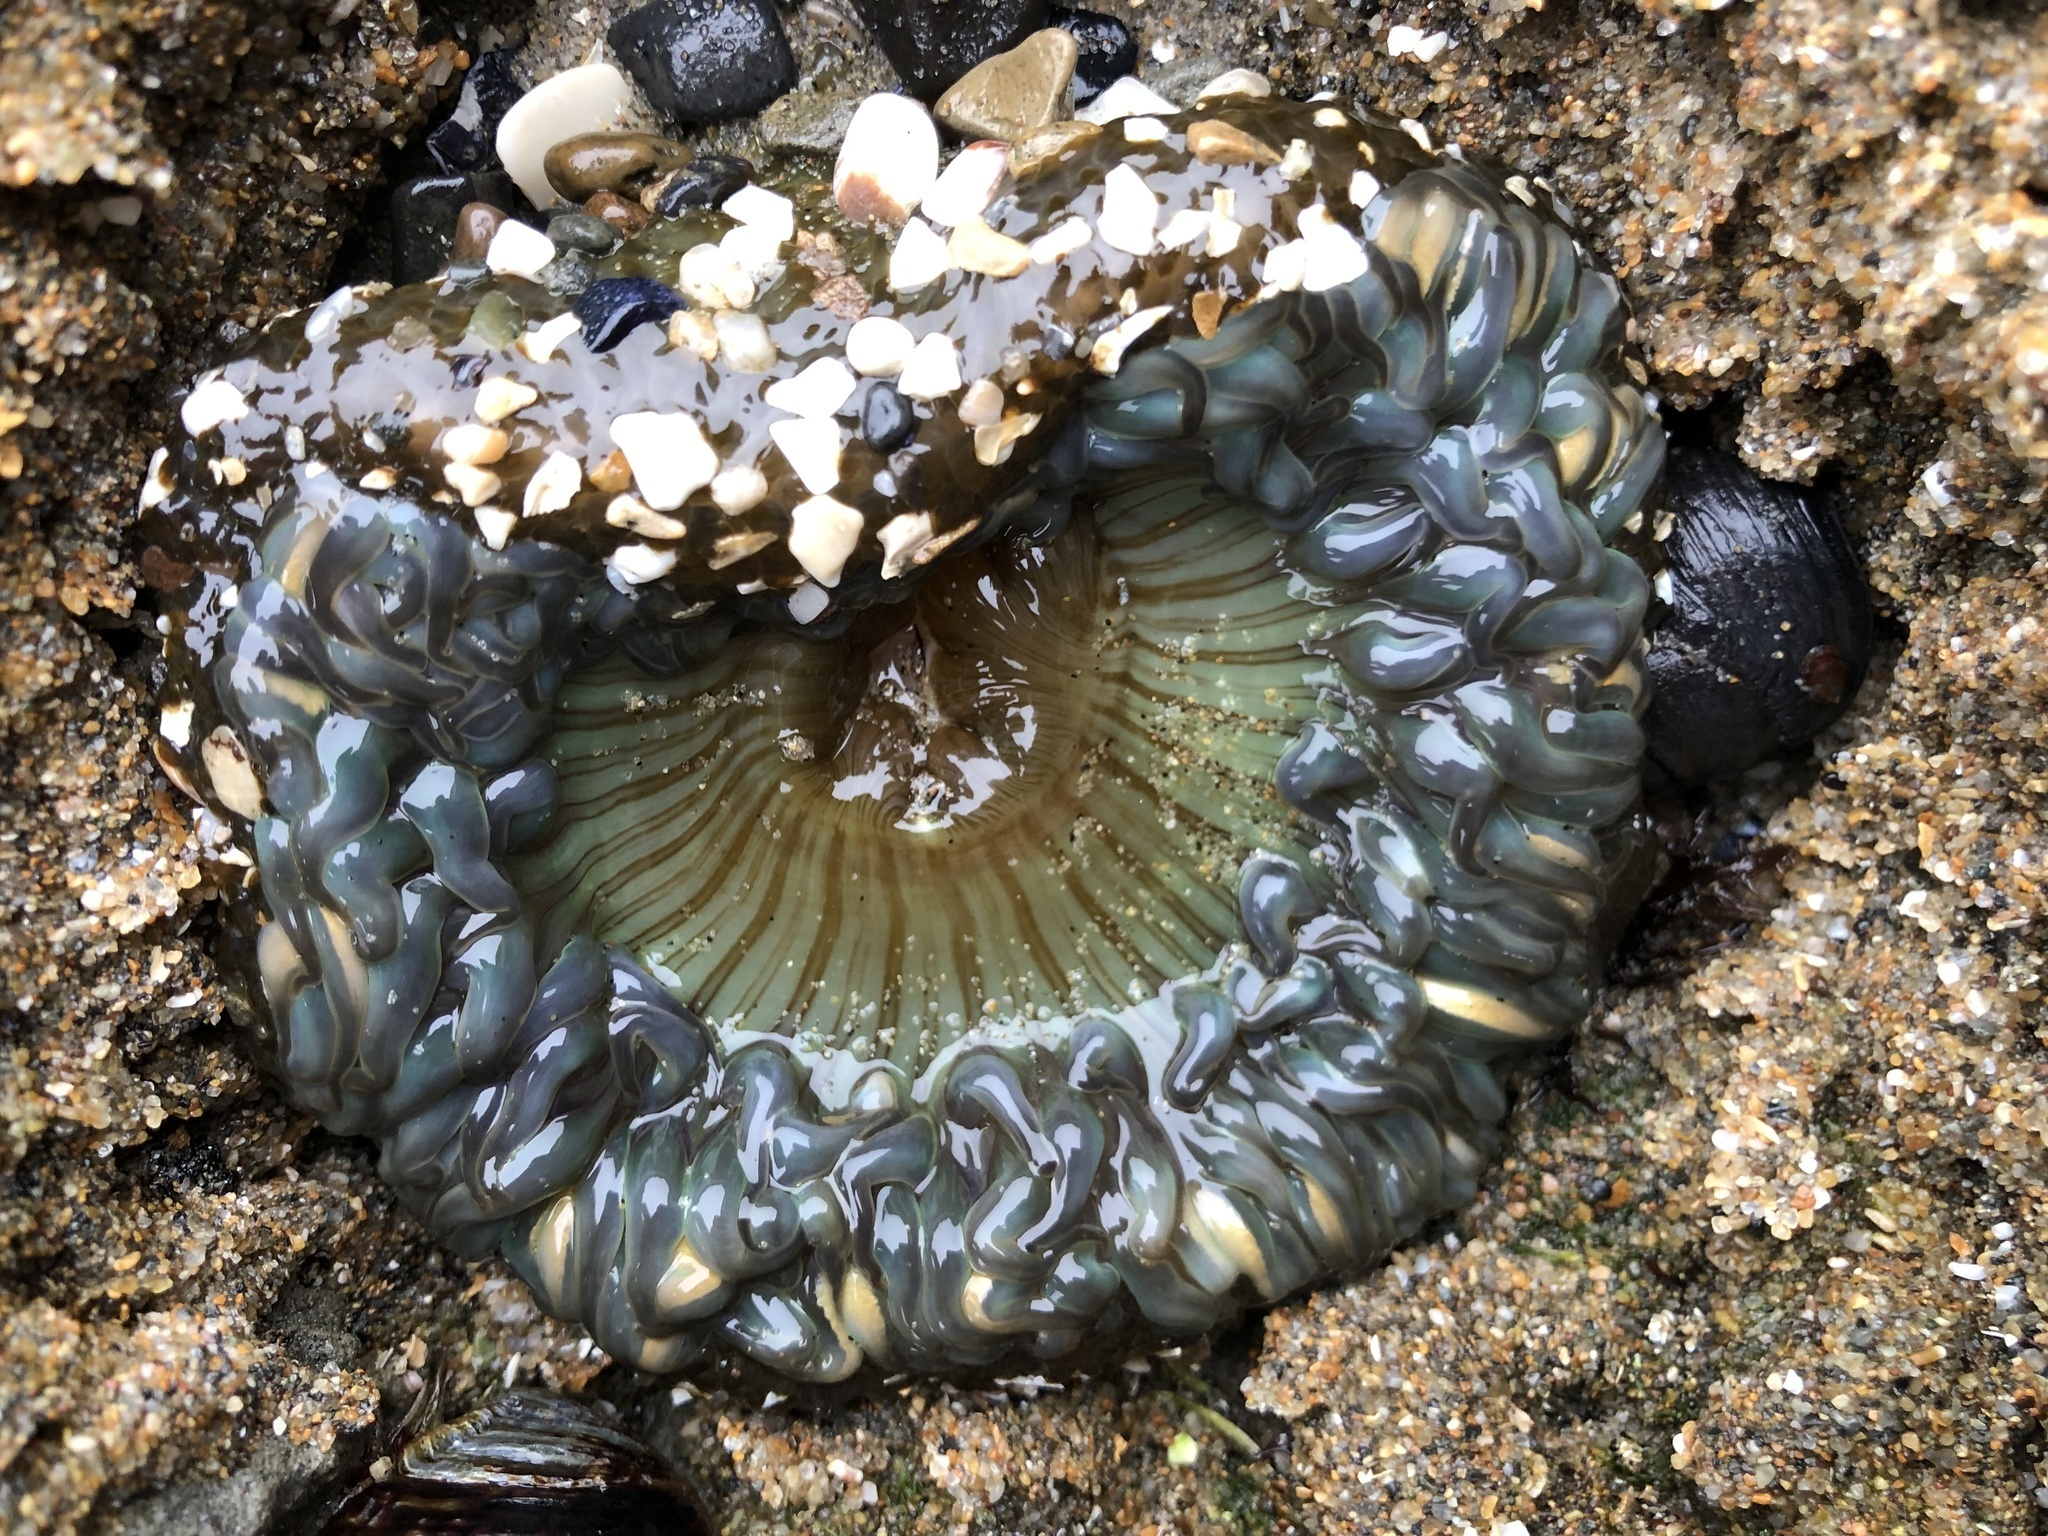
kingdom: Animalia
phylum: Cnidaria
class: Anthozoa
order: Actiniaria
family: Actiniidae
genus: Anthopleura
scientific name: Anthopleura sola
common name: Sun anemone
